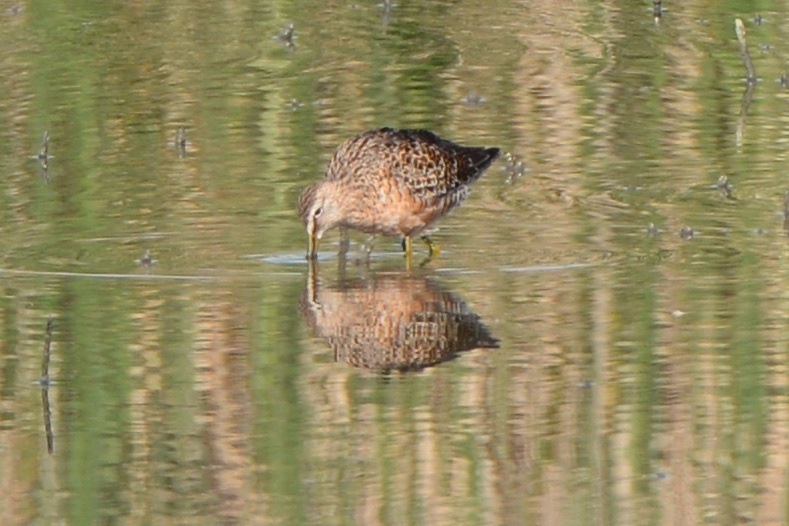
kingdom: Animalia
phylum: Chordata
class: Aves
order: Charadriiformes
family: Scolopacidae
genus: Limnodromus
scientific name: Limnodromus scolopaceus
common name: Long-billed dowitcher
